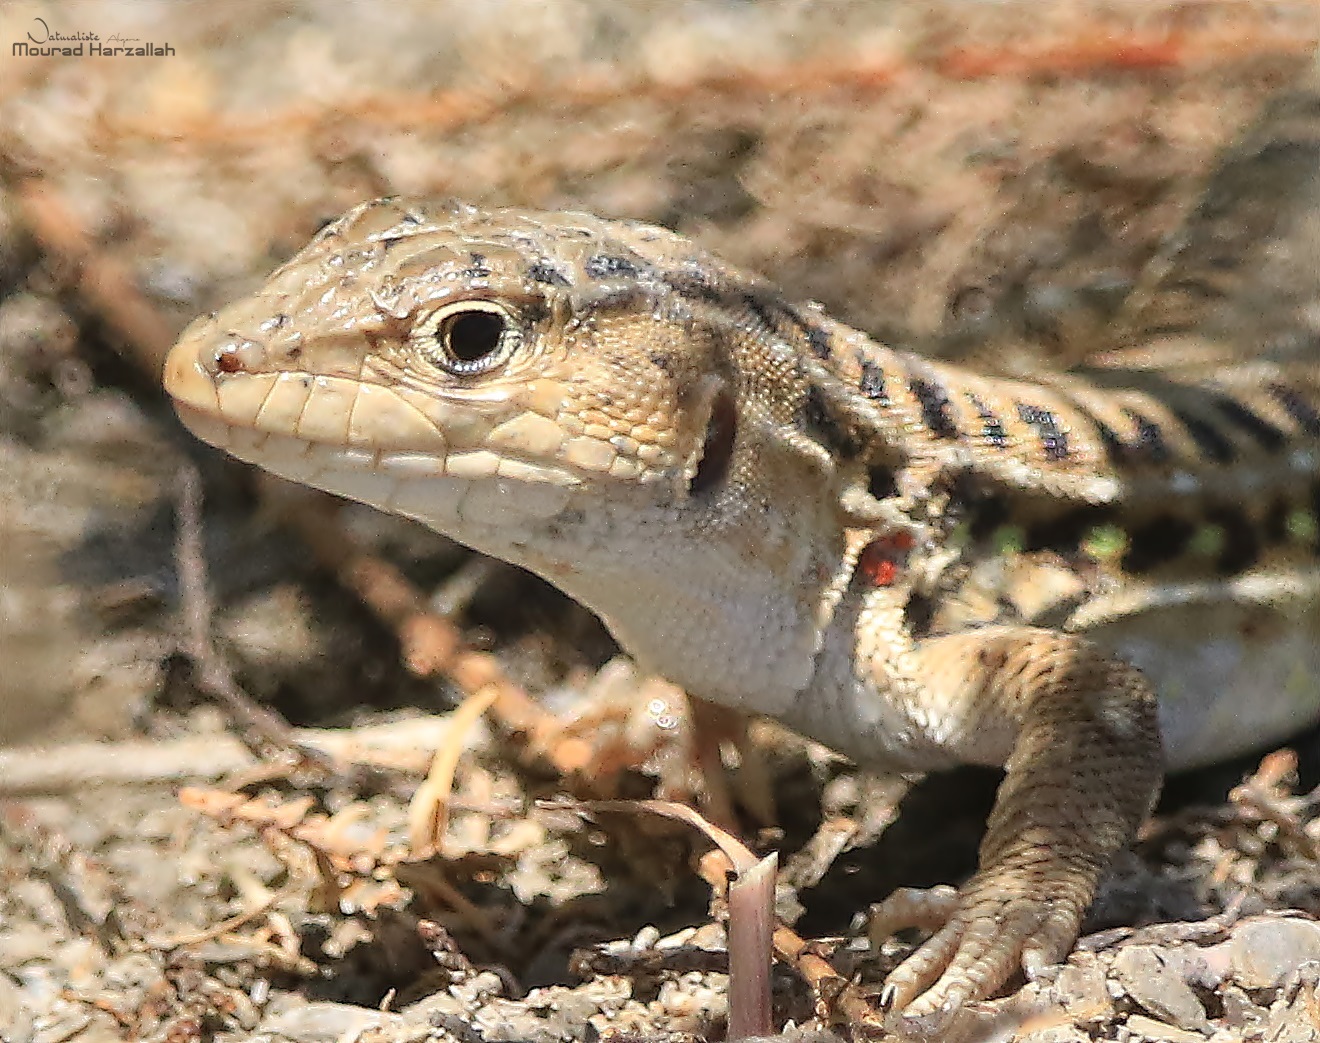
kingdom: Animalia
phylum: Chordata
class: Squamata
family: Lacertidae
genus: Acanthodactylus
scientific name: Acanthodactylus erythrurus
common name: Spiny-footed lizard
